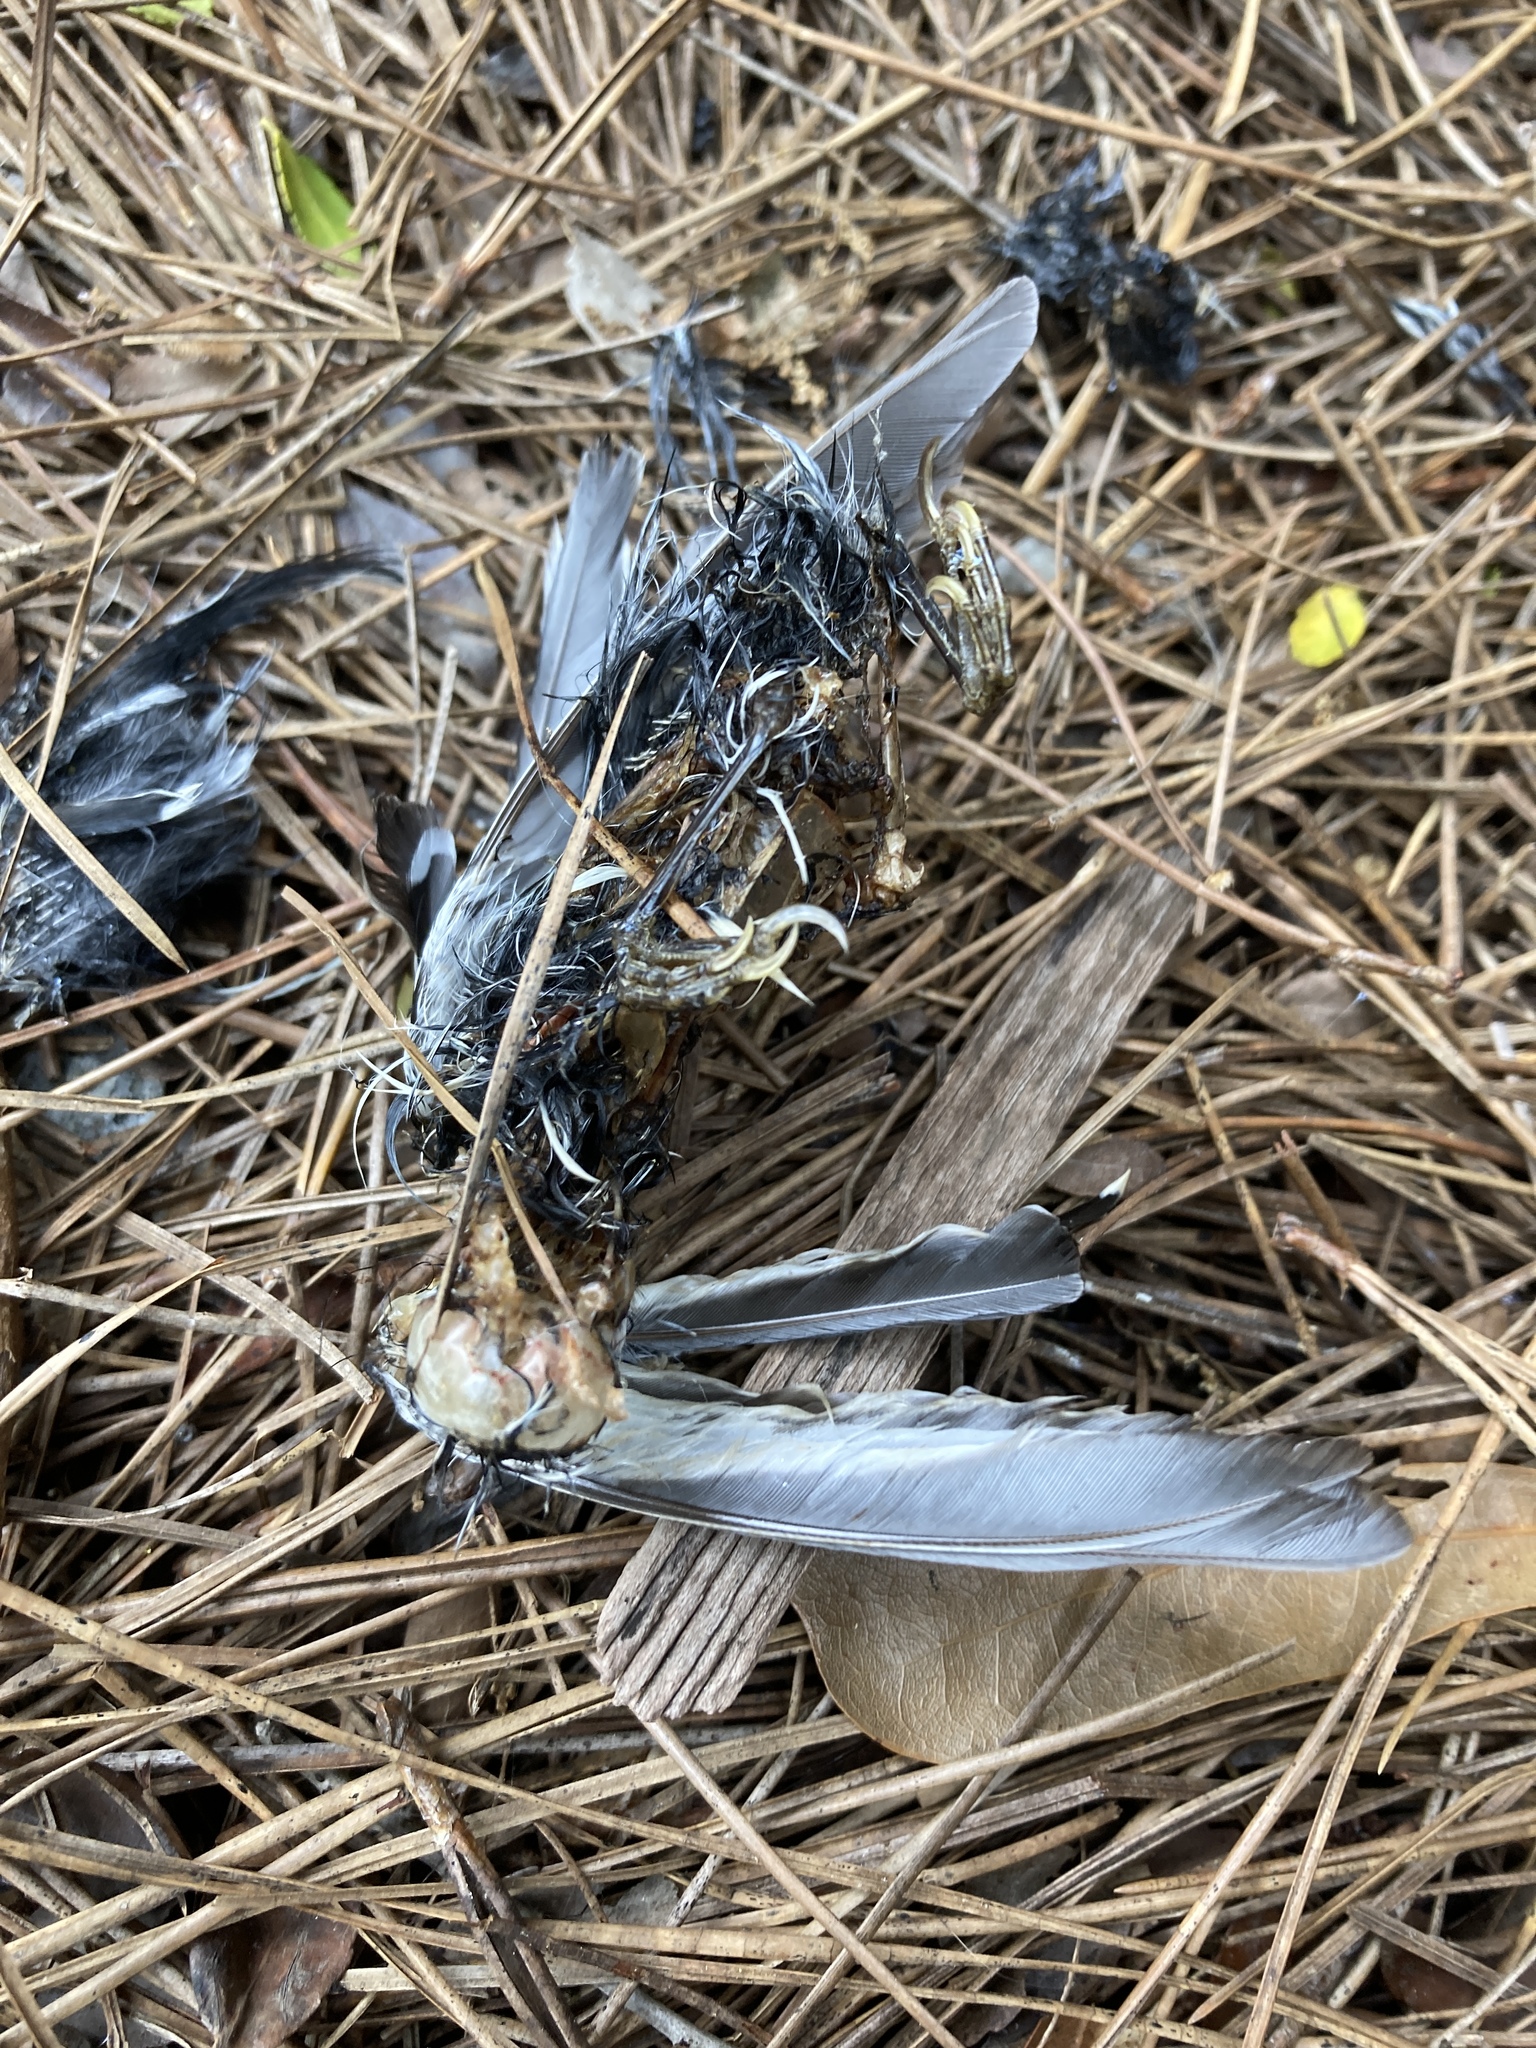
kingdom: Animalia
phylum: Chordata
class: Aves
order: Passeriformes
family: Parulidae
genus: Mniotilta
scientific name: Mniotilta varia
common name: Black-and-white warbler
